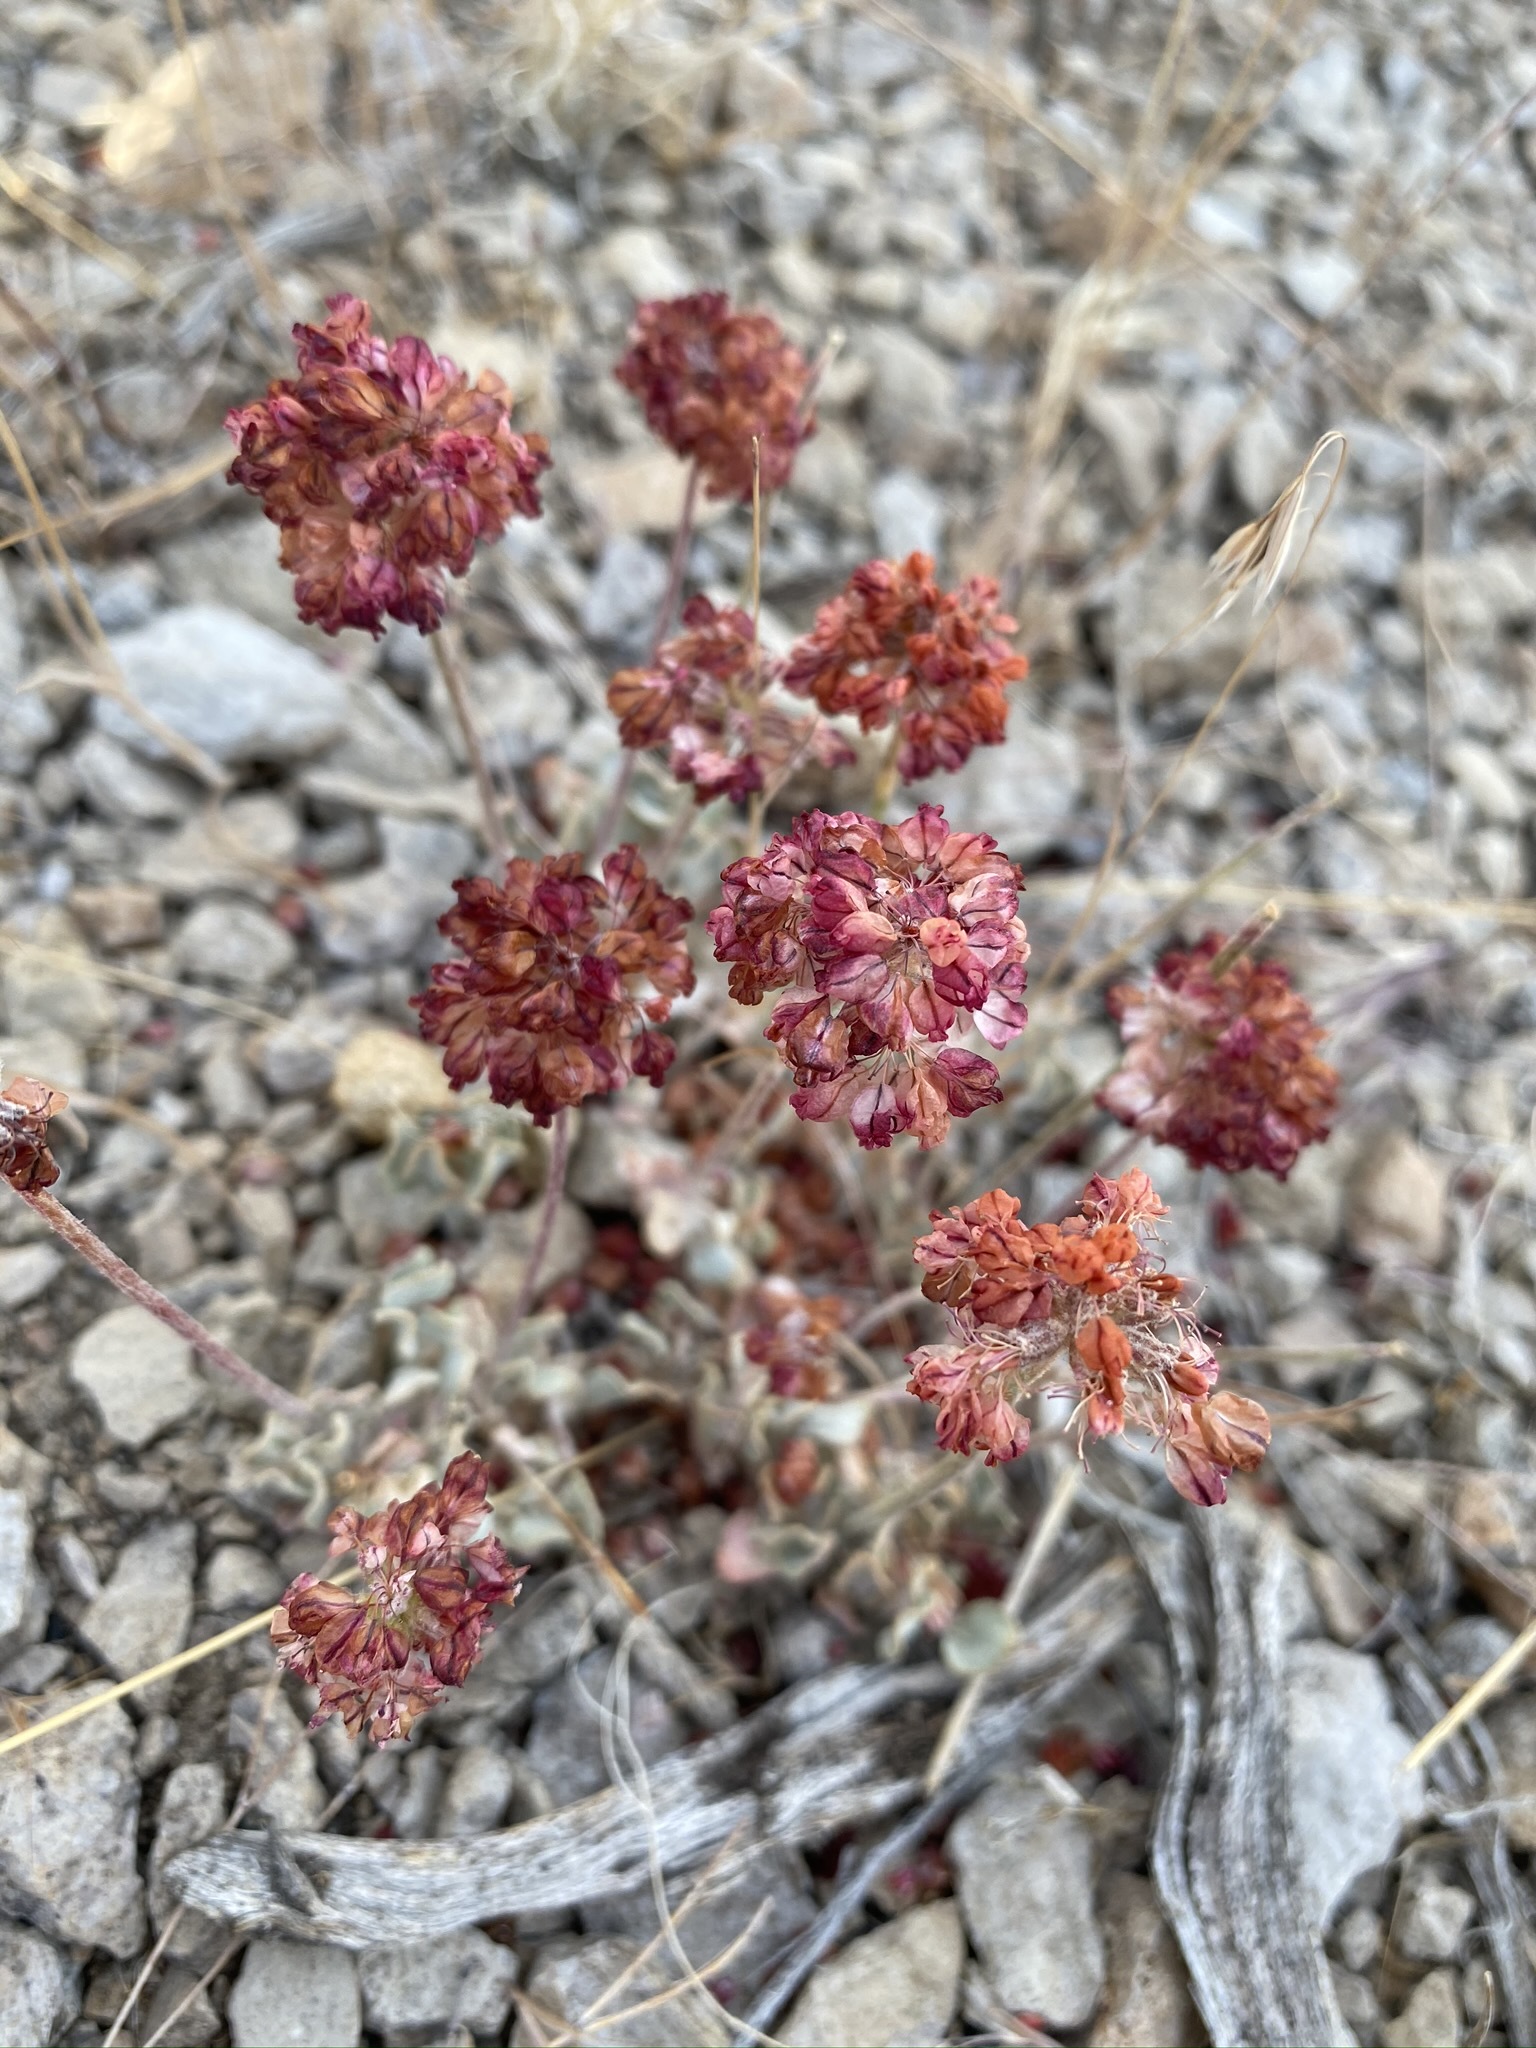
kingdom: Plantae
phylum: Tracheophyta
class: Magnoliopsida
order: Caryophyllales
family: Polygonaceae
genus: Eriogonum
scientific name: Eriogonum ovalifolium
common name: Cushion buckwheat
